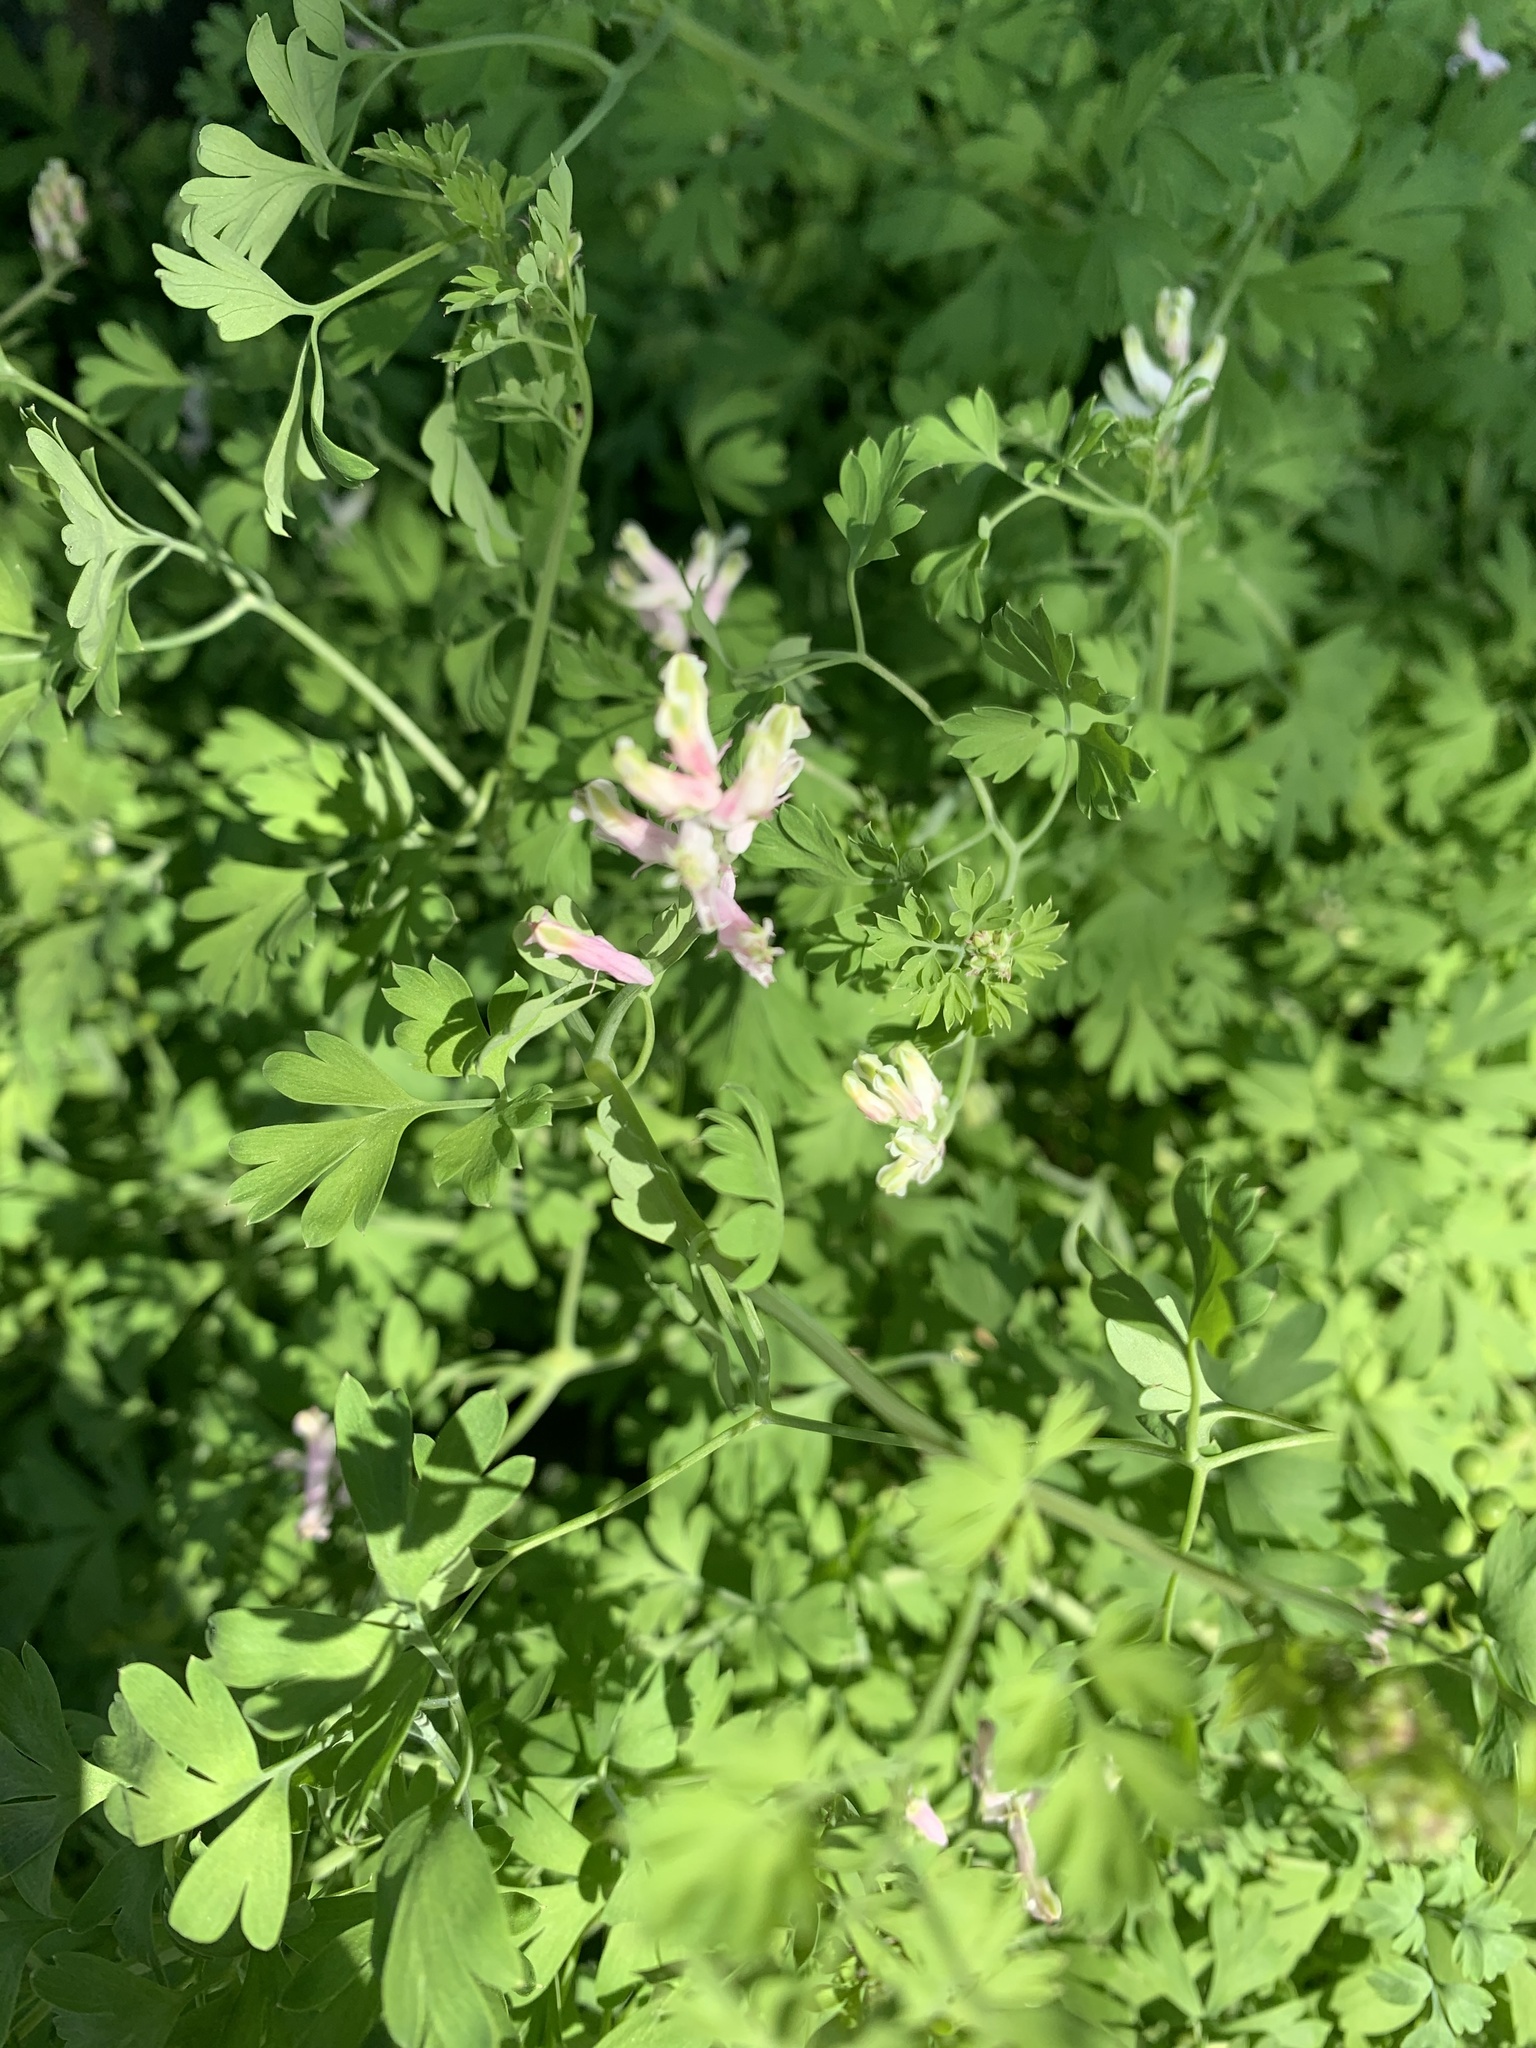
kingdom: Plantae
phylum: Tracheophyta
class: Magnoliopsida
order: Ranunculales
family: Papaveraceae
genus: Fumaria
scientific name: Fumaria
